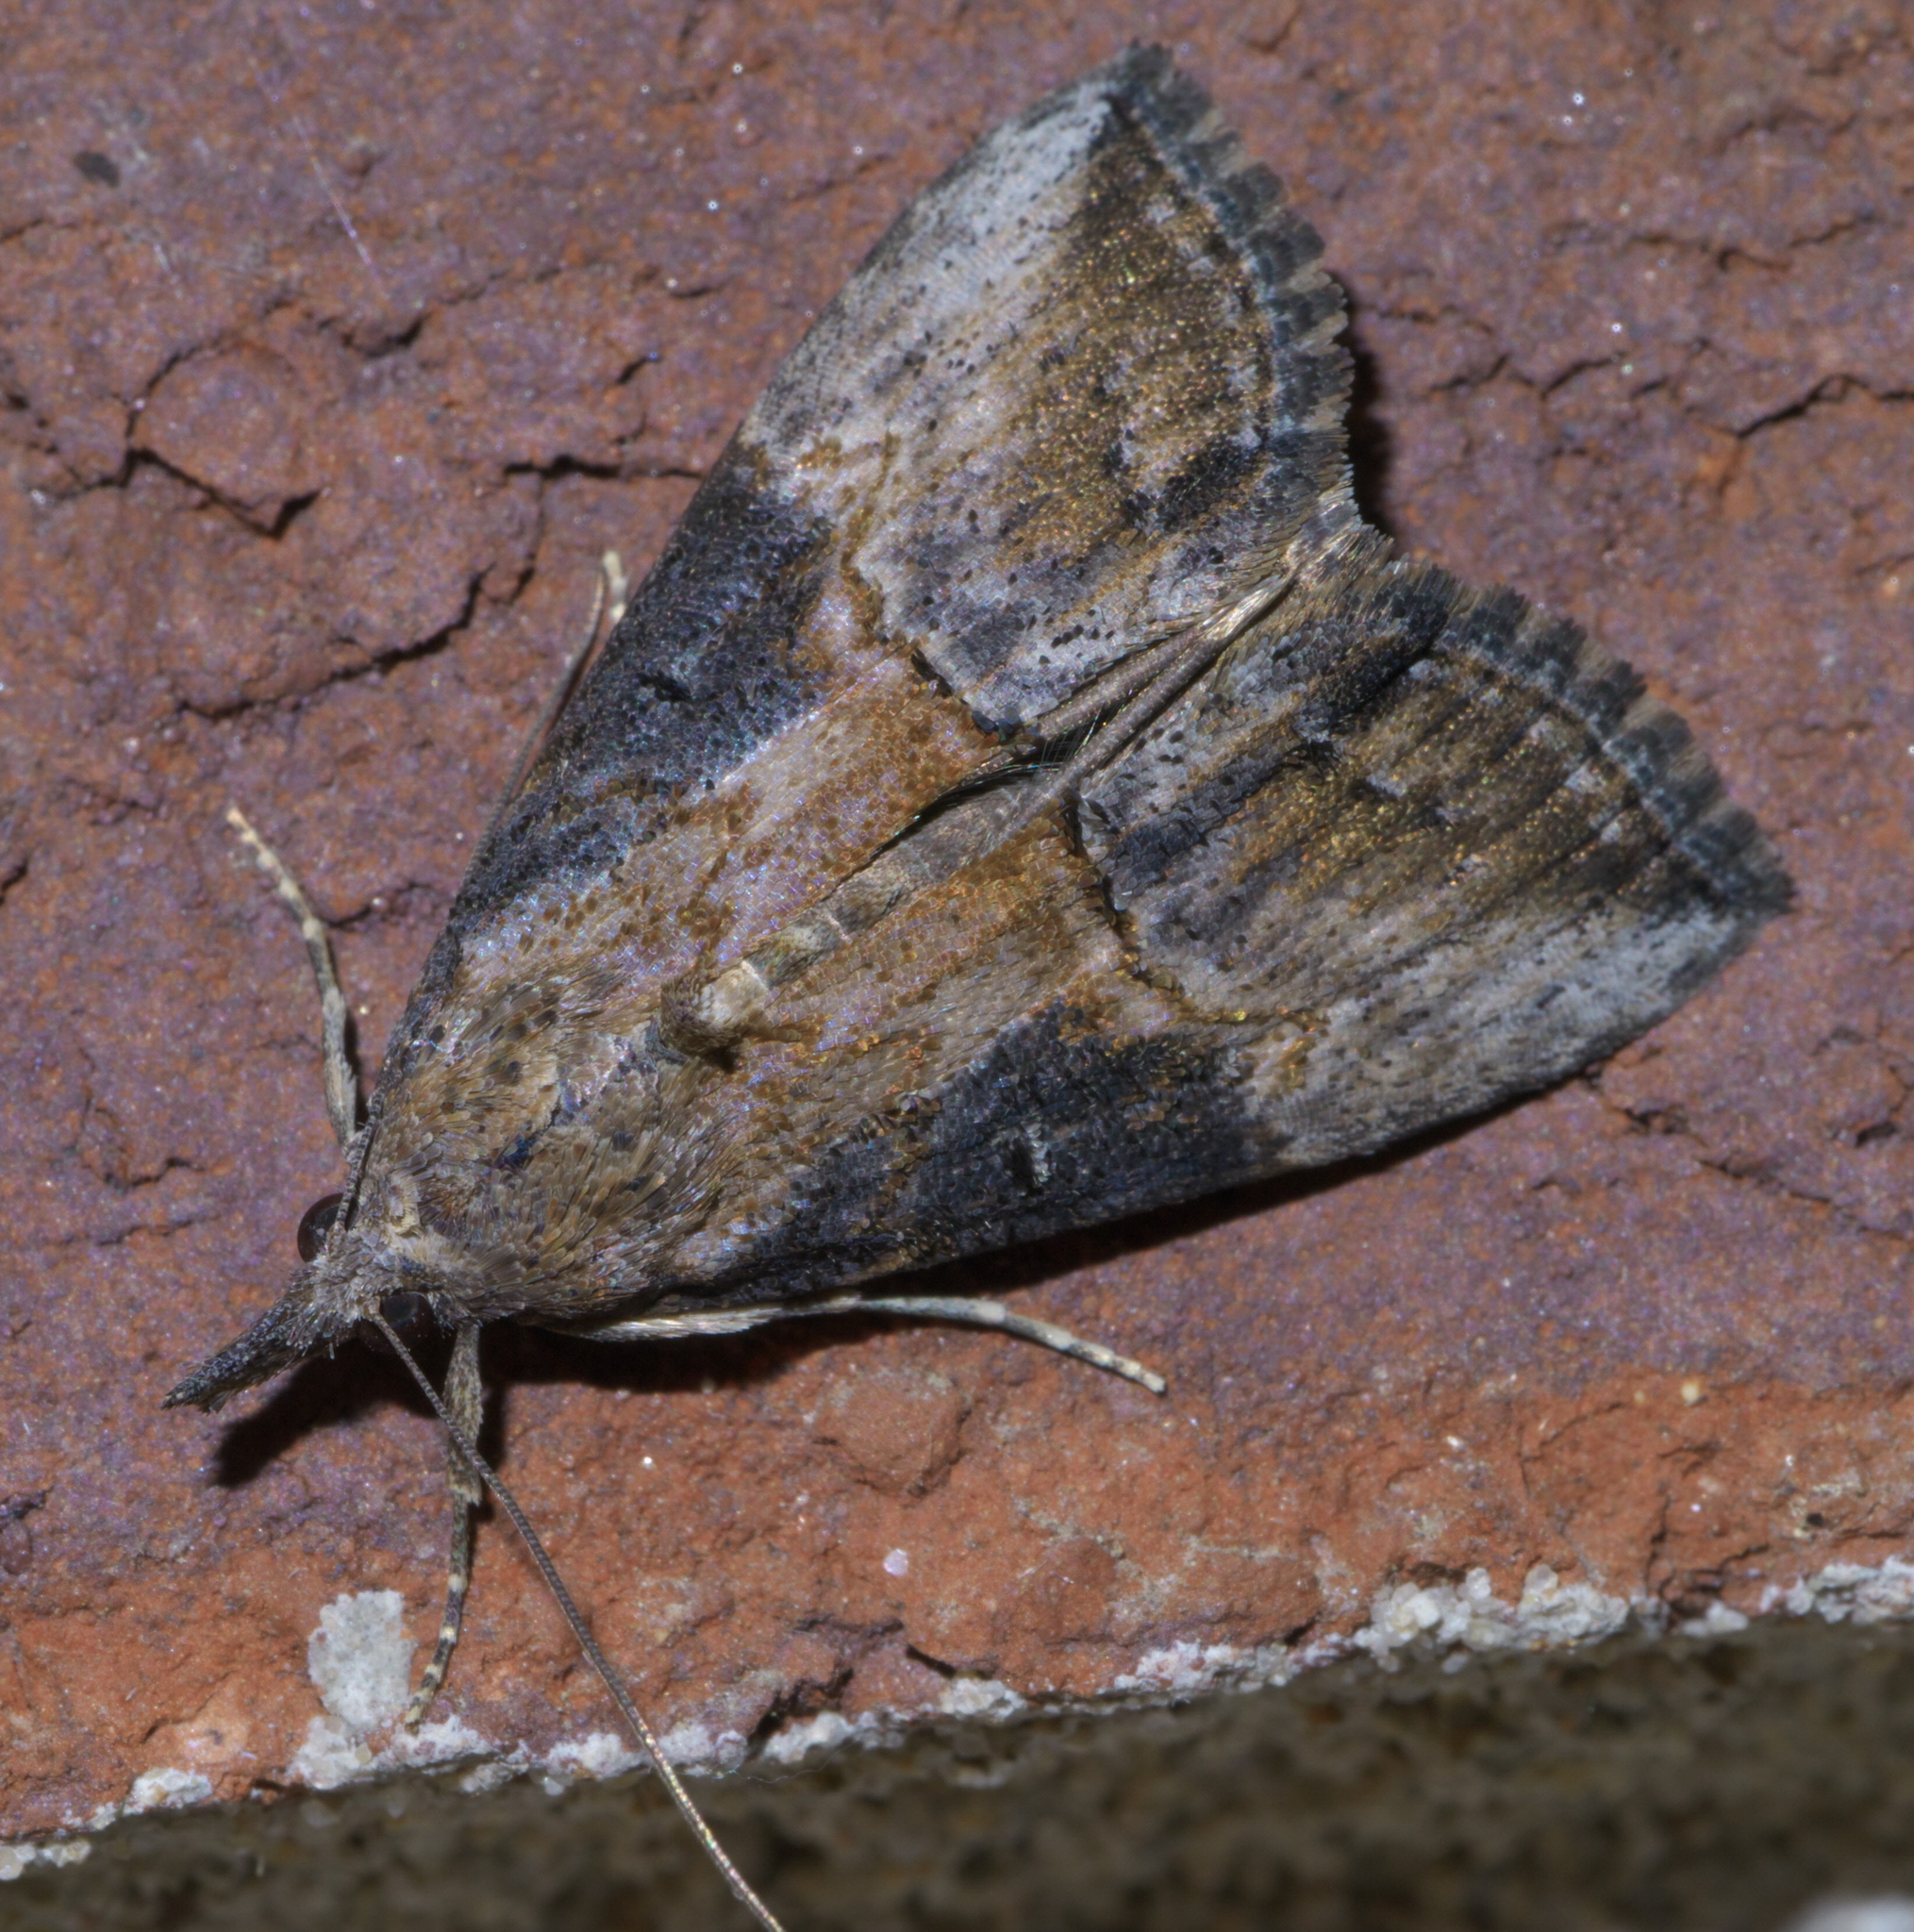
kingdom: Animalia
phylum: Arthropoda
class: Insecta
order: Lepidoptera
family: Erebidae
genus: Hypena
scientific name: Hypena scabra
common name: Green cloverworm
